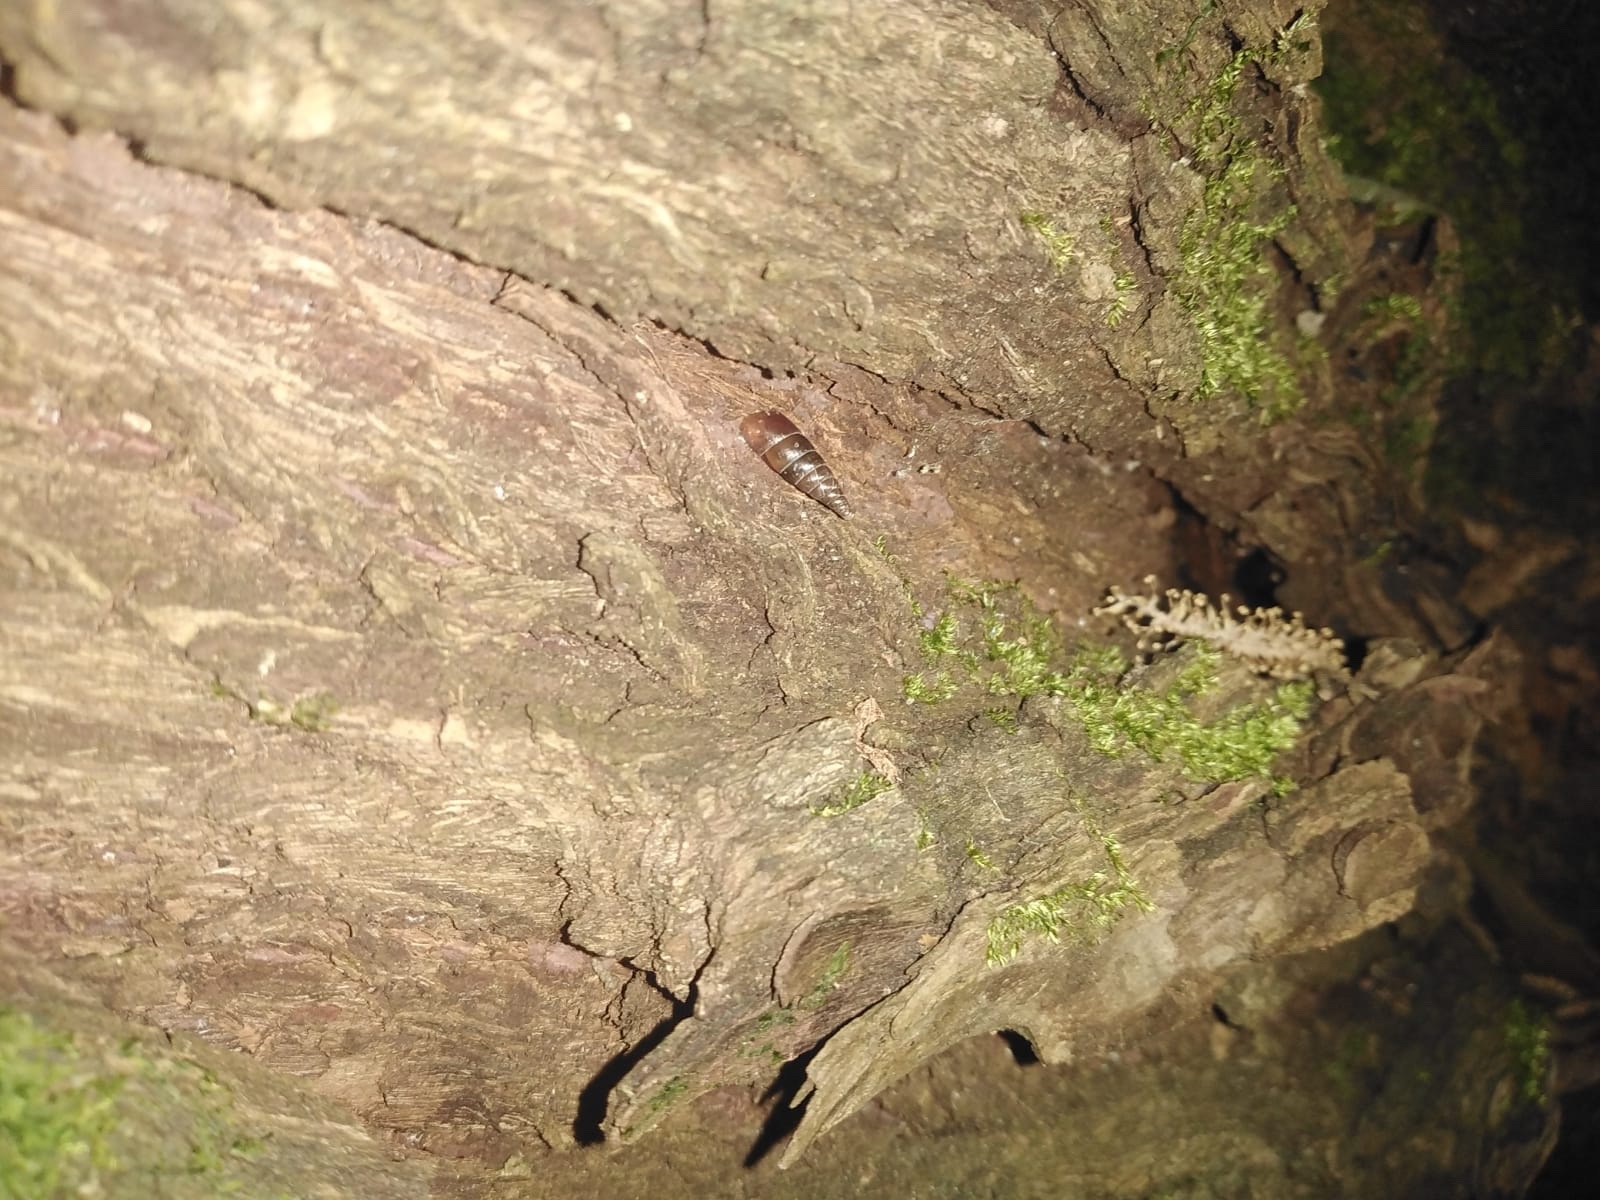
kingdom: Animalia
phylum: Mollusca
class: Gastropoda
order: Stylommatophora
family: Clausiliidae
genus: Cochlodina
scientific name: Cochlodina bidens
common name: Snail
